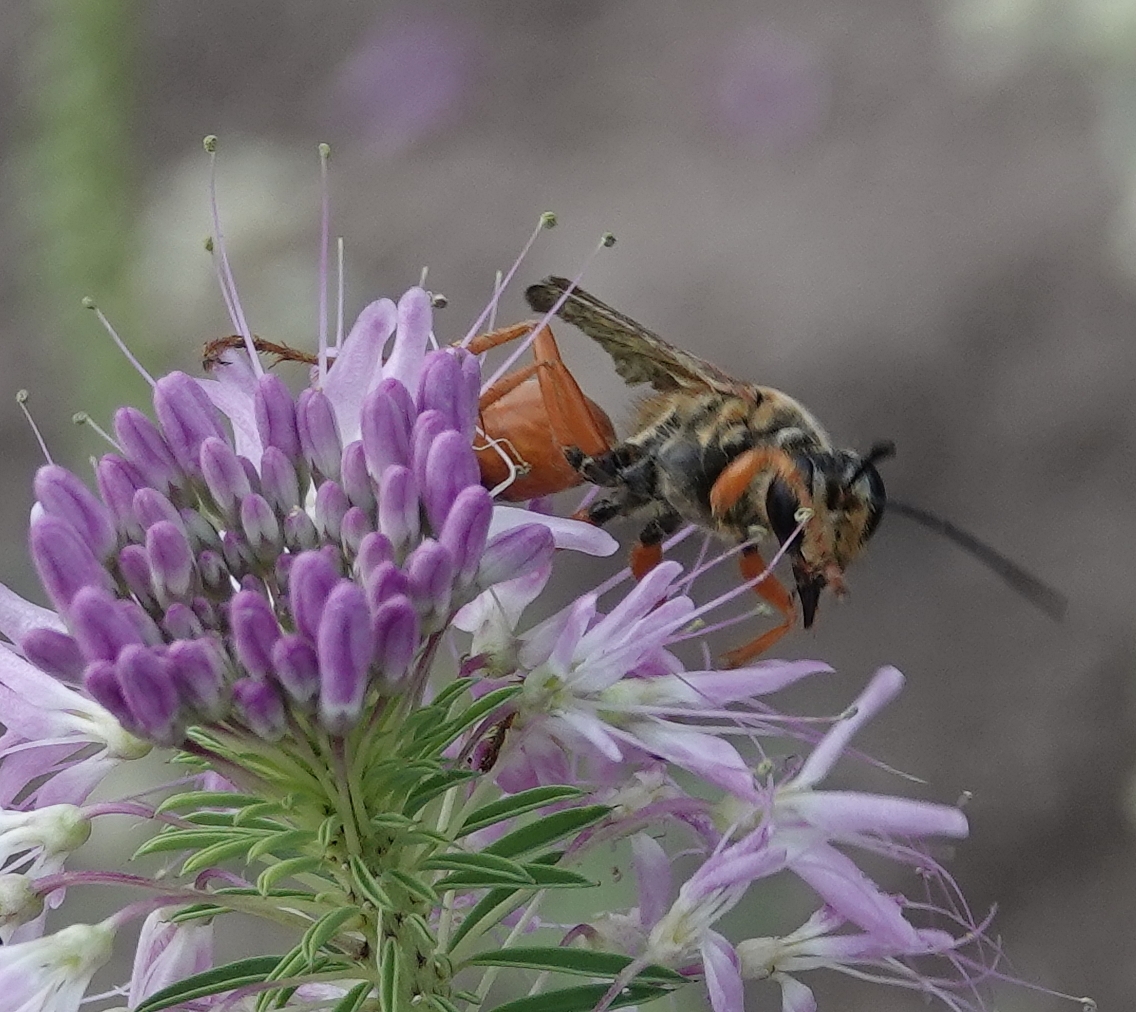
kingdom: Animalia
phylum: Arthropoda
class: Insecta
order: Hymenoptera
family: Sphecidae
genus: Sphex
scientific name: Sphex ichneumoneus
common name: Great golden digger wasp
